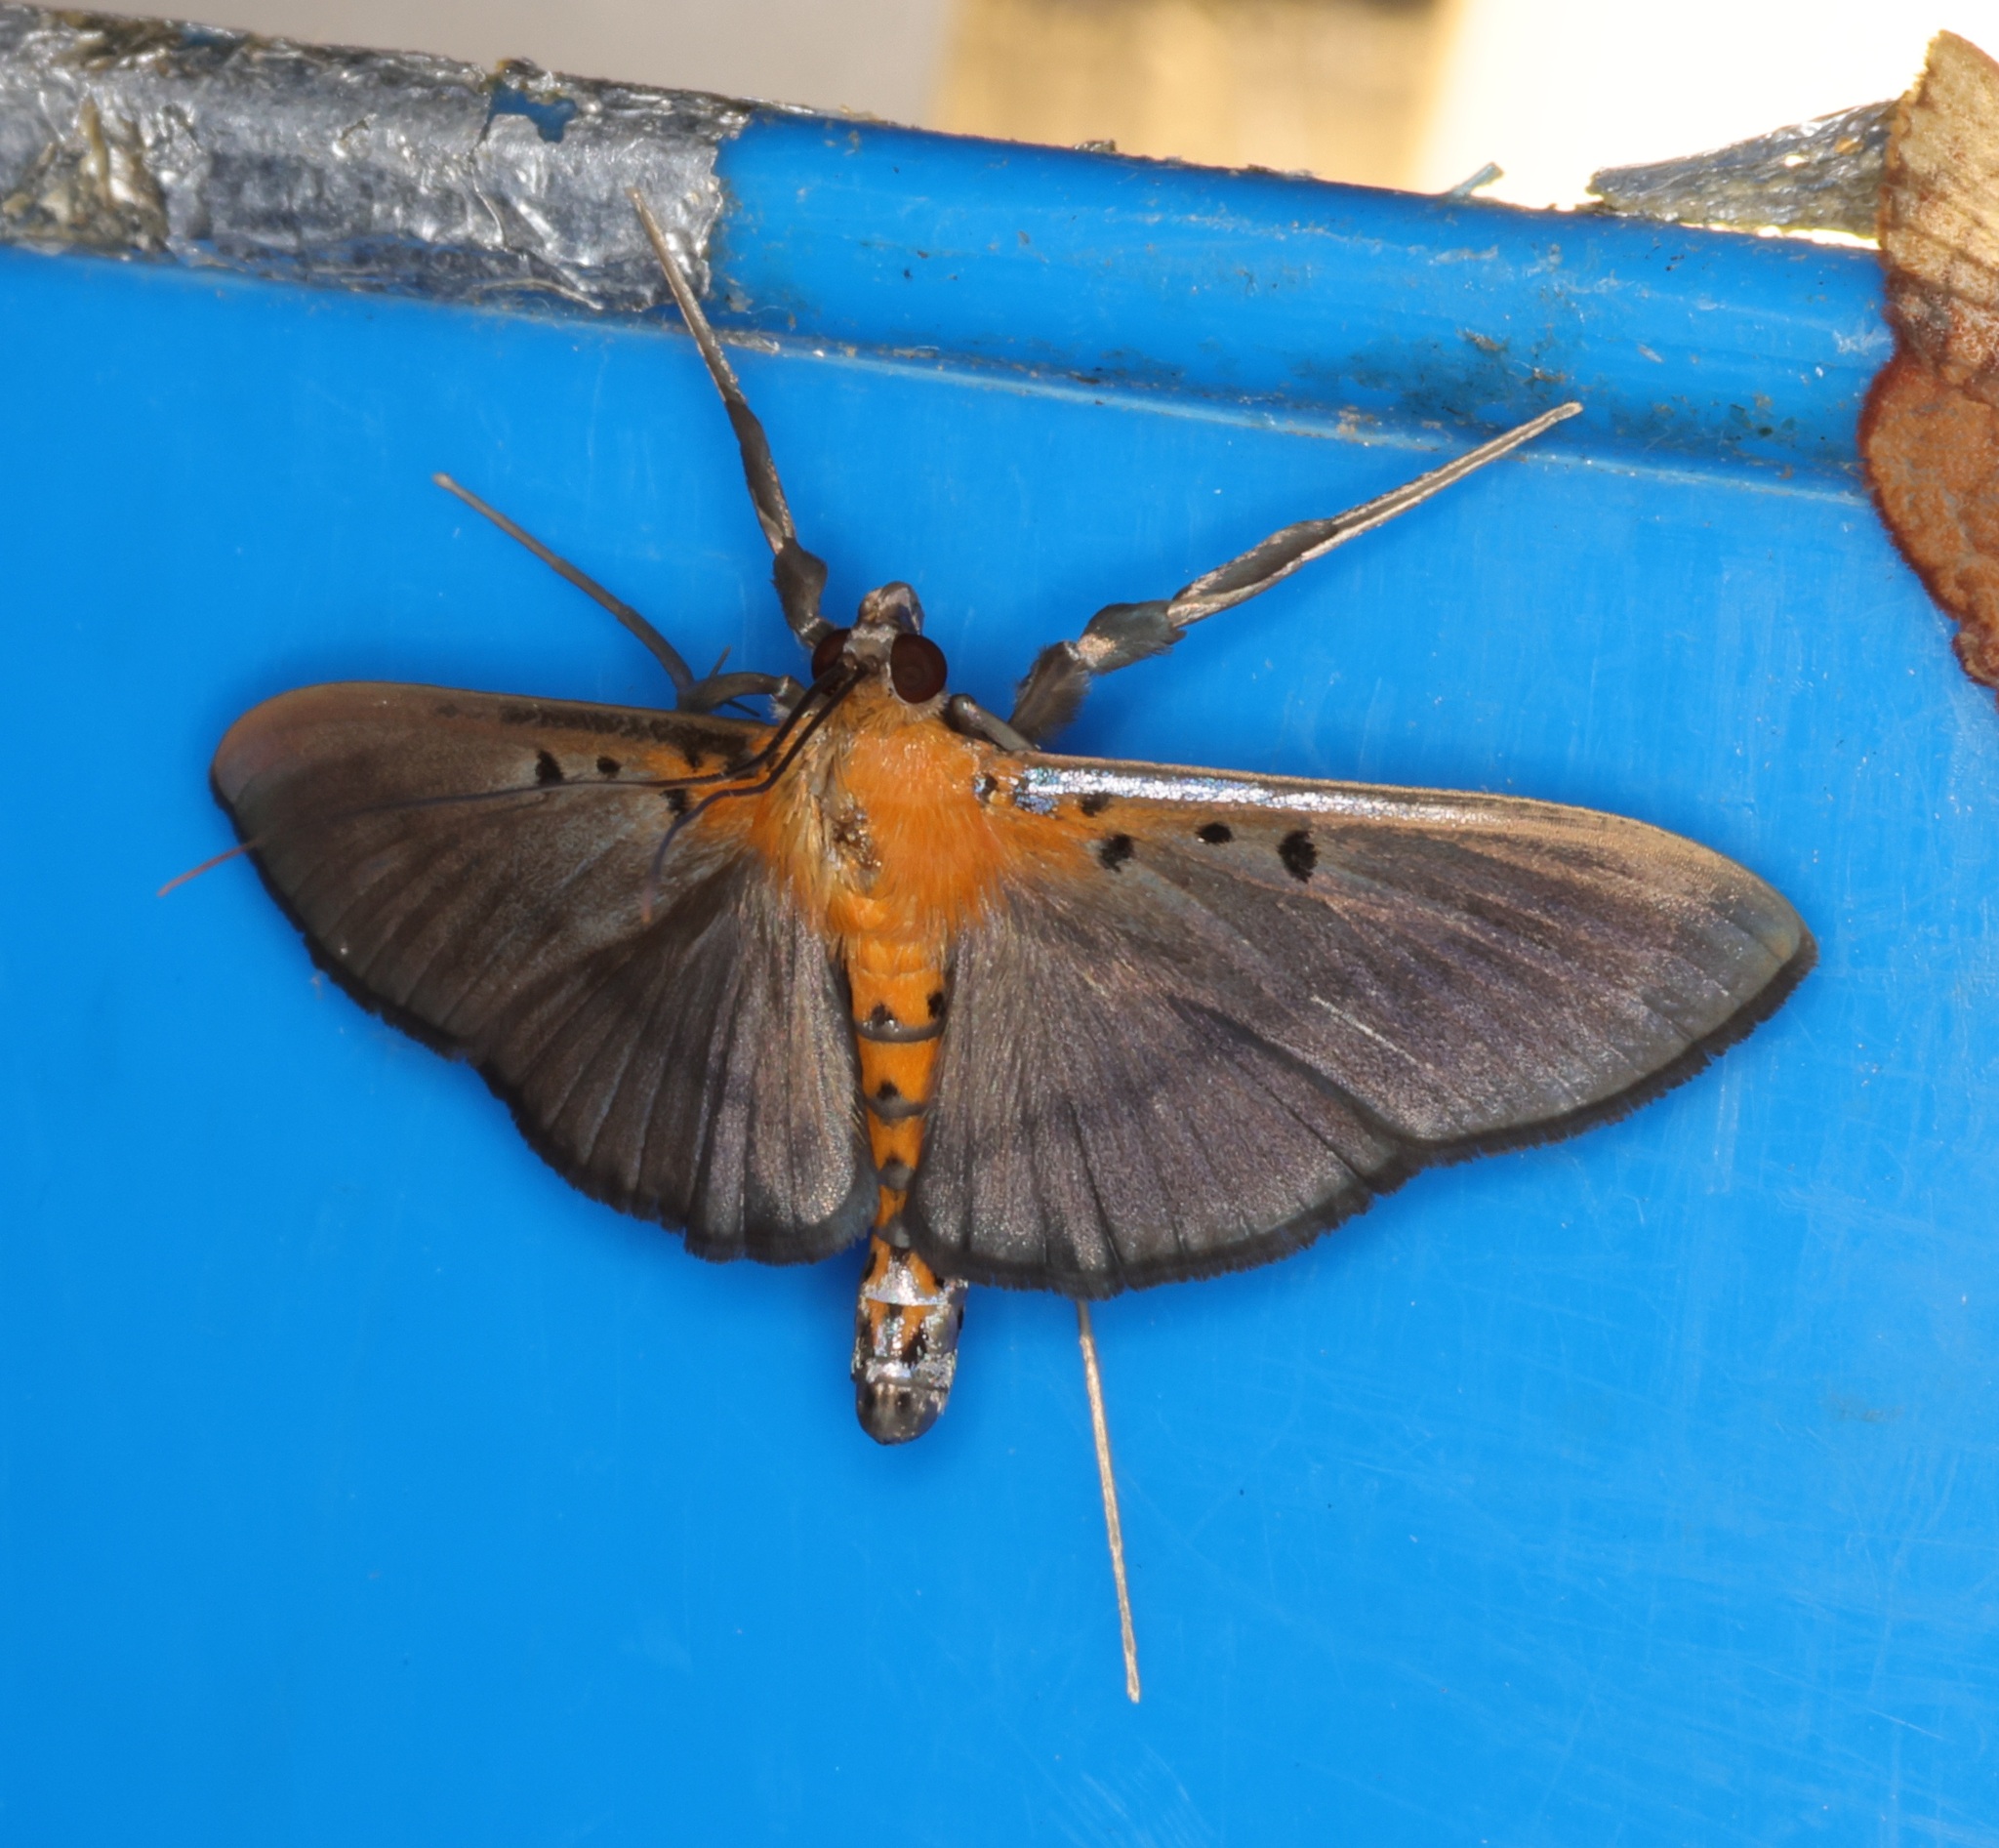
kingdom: Animalia
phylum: Arthropoda
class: Insecta
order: Lepidoptera
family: Crambidae
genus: Filodes
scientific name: Filodes fulvidorsalis
